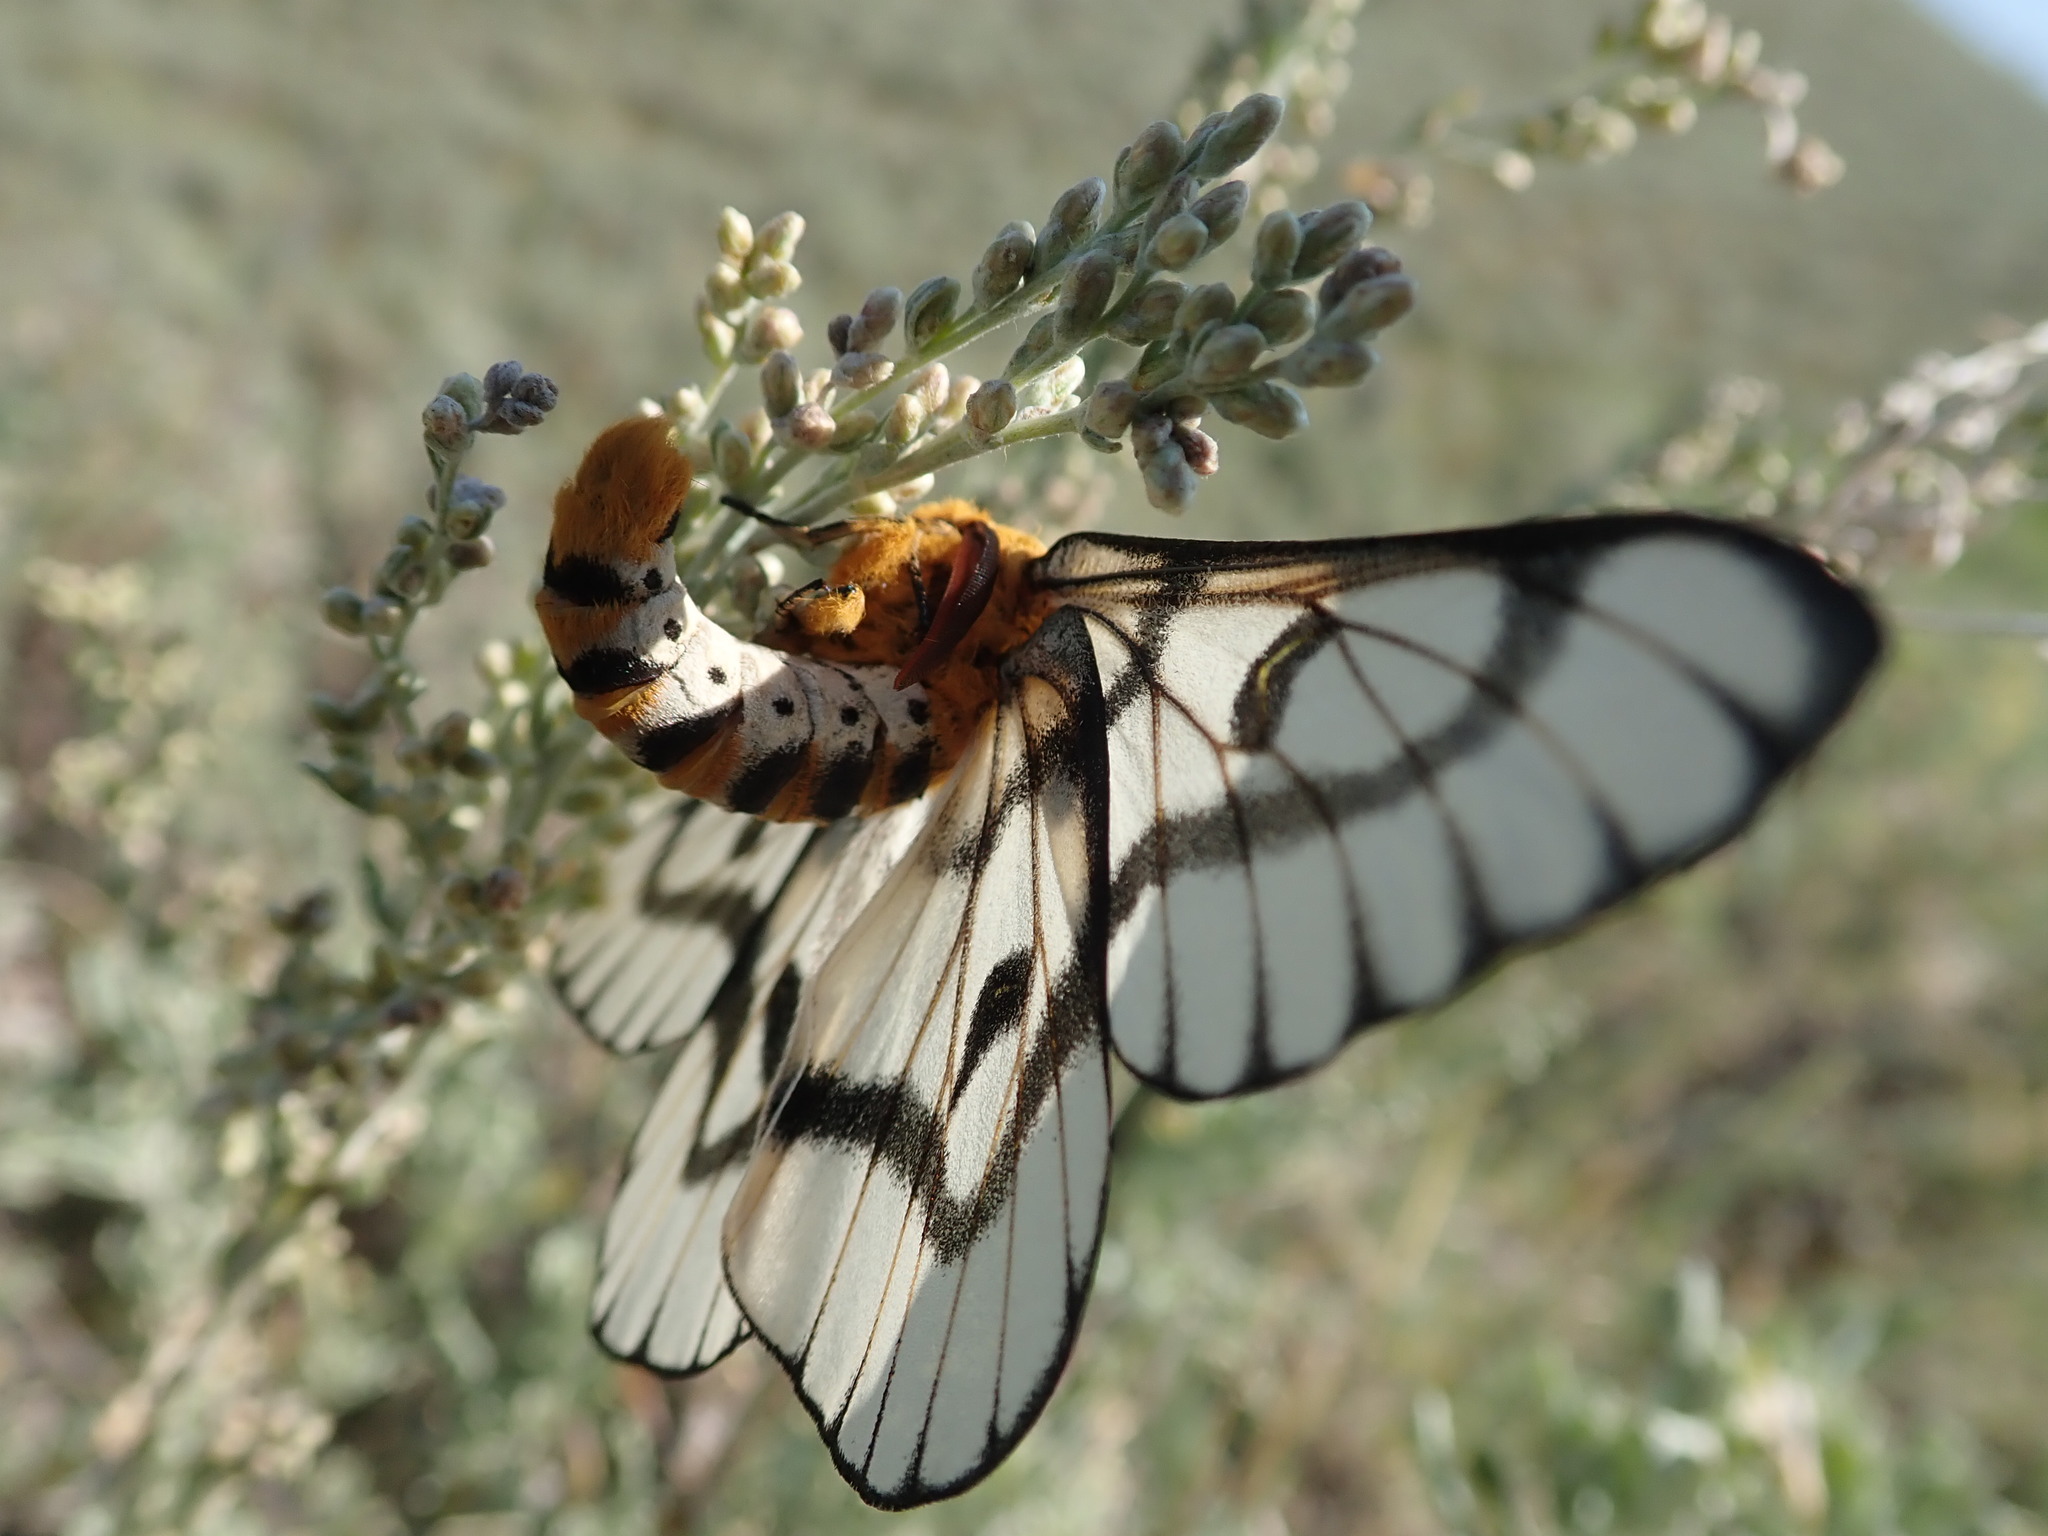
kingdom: Animalia
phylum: Arthropoda
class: Insecta
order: Lepidoptera
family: Saturniidae
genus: Hemileuca
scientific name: Hemileuca hera
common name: Hera sheepmoth
